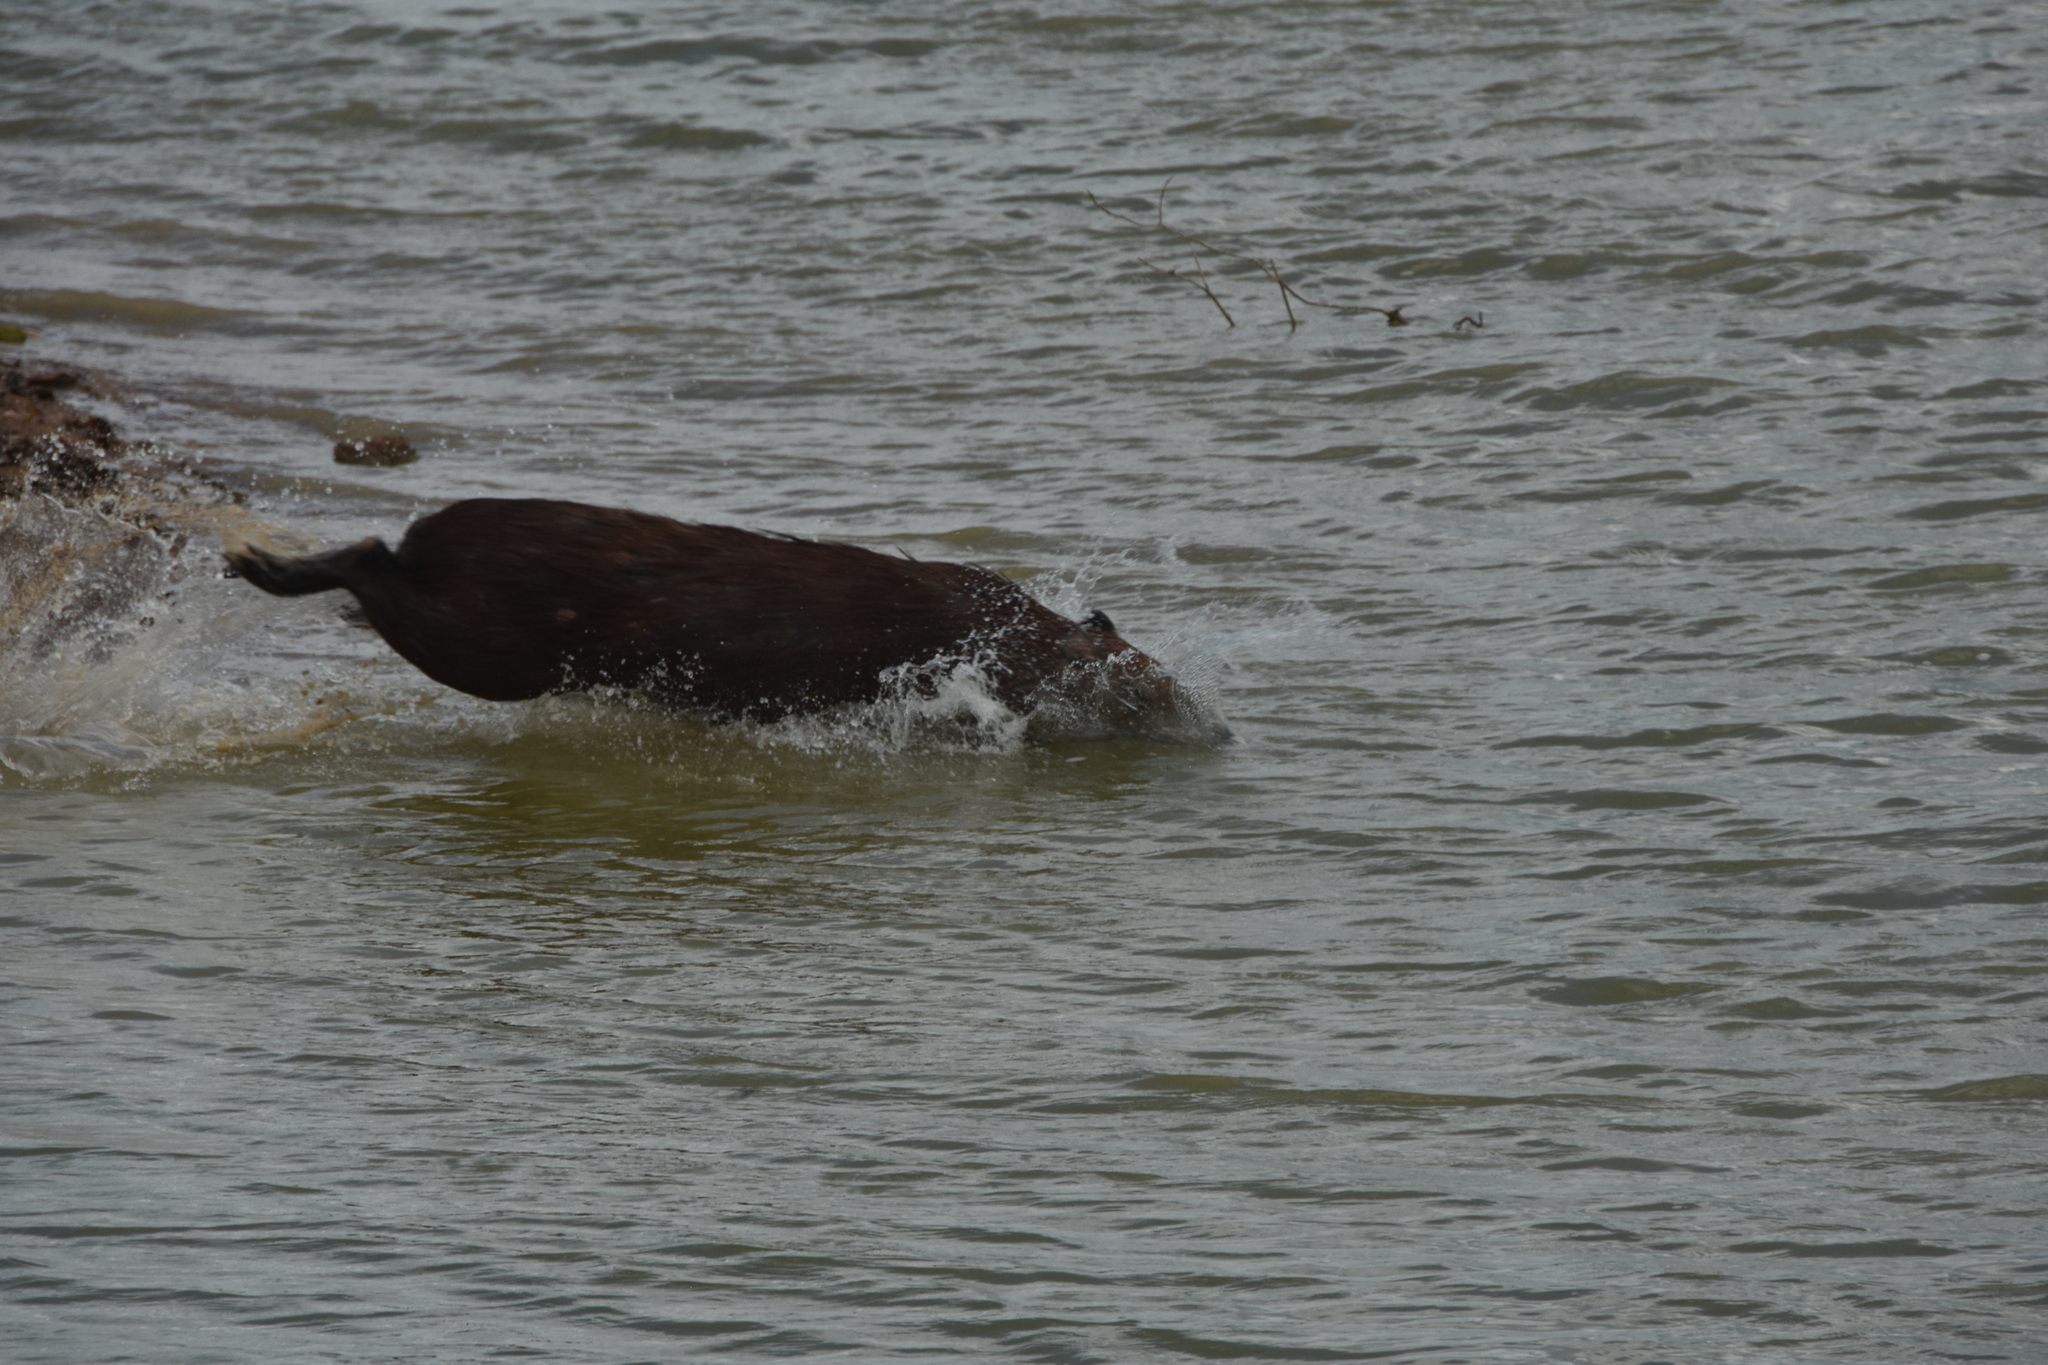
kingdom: Animalia
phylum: Chordata
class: Mammalia
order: Rodentia
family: Caviidae
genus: Hydrochoerus
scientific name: Hydrochoerus hydrochaeris
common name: Capybara
